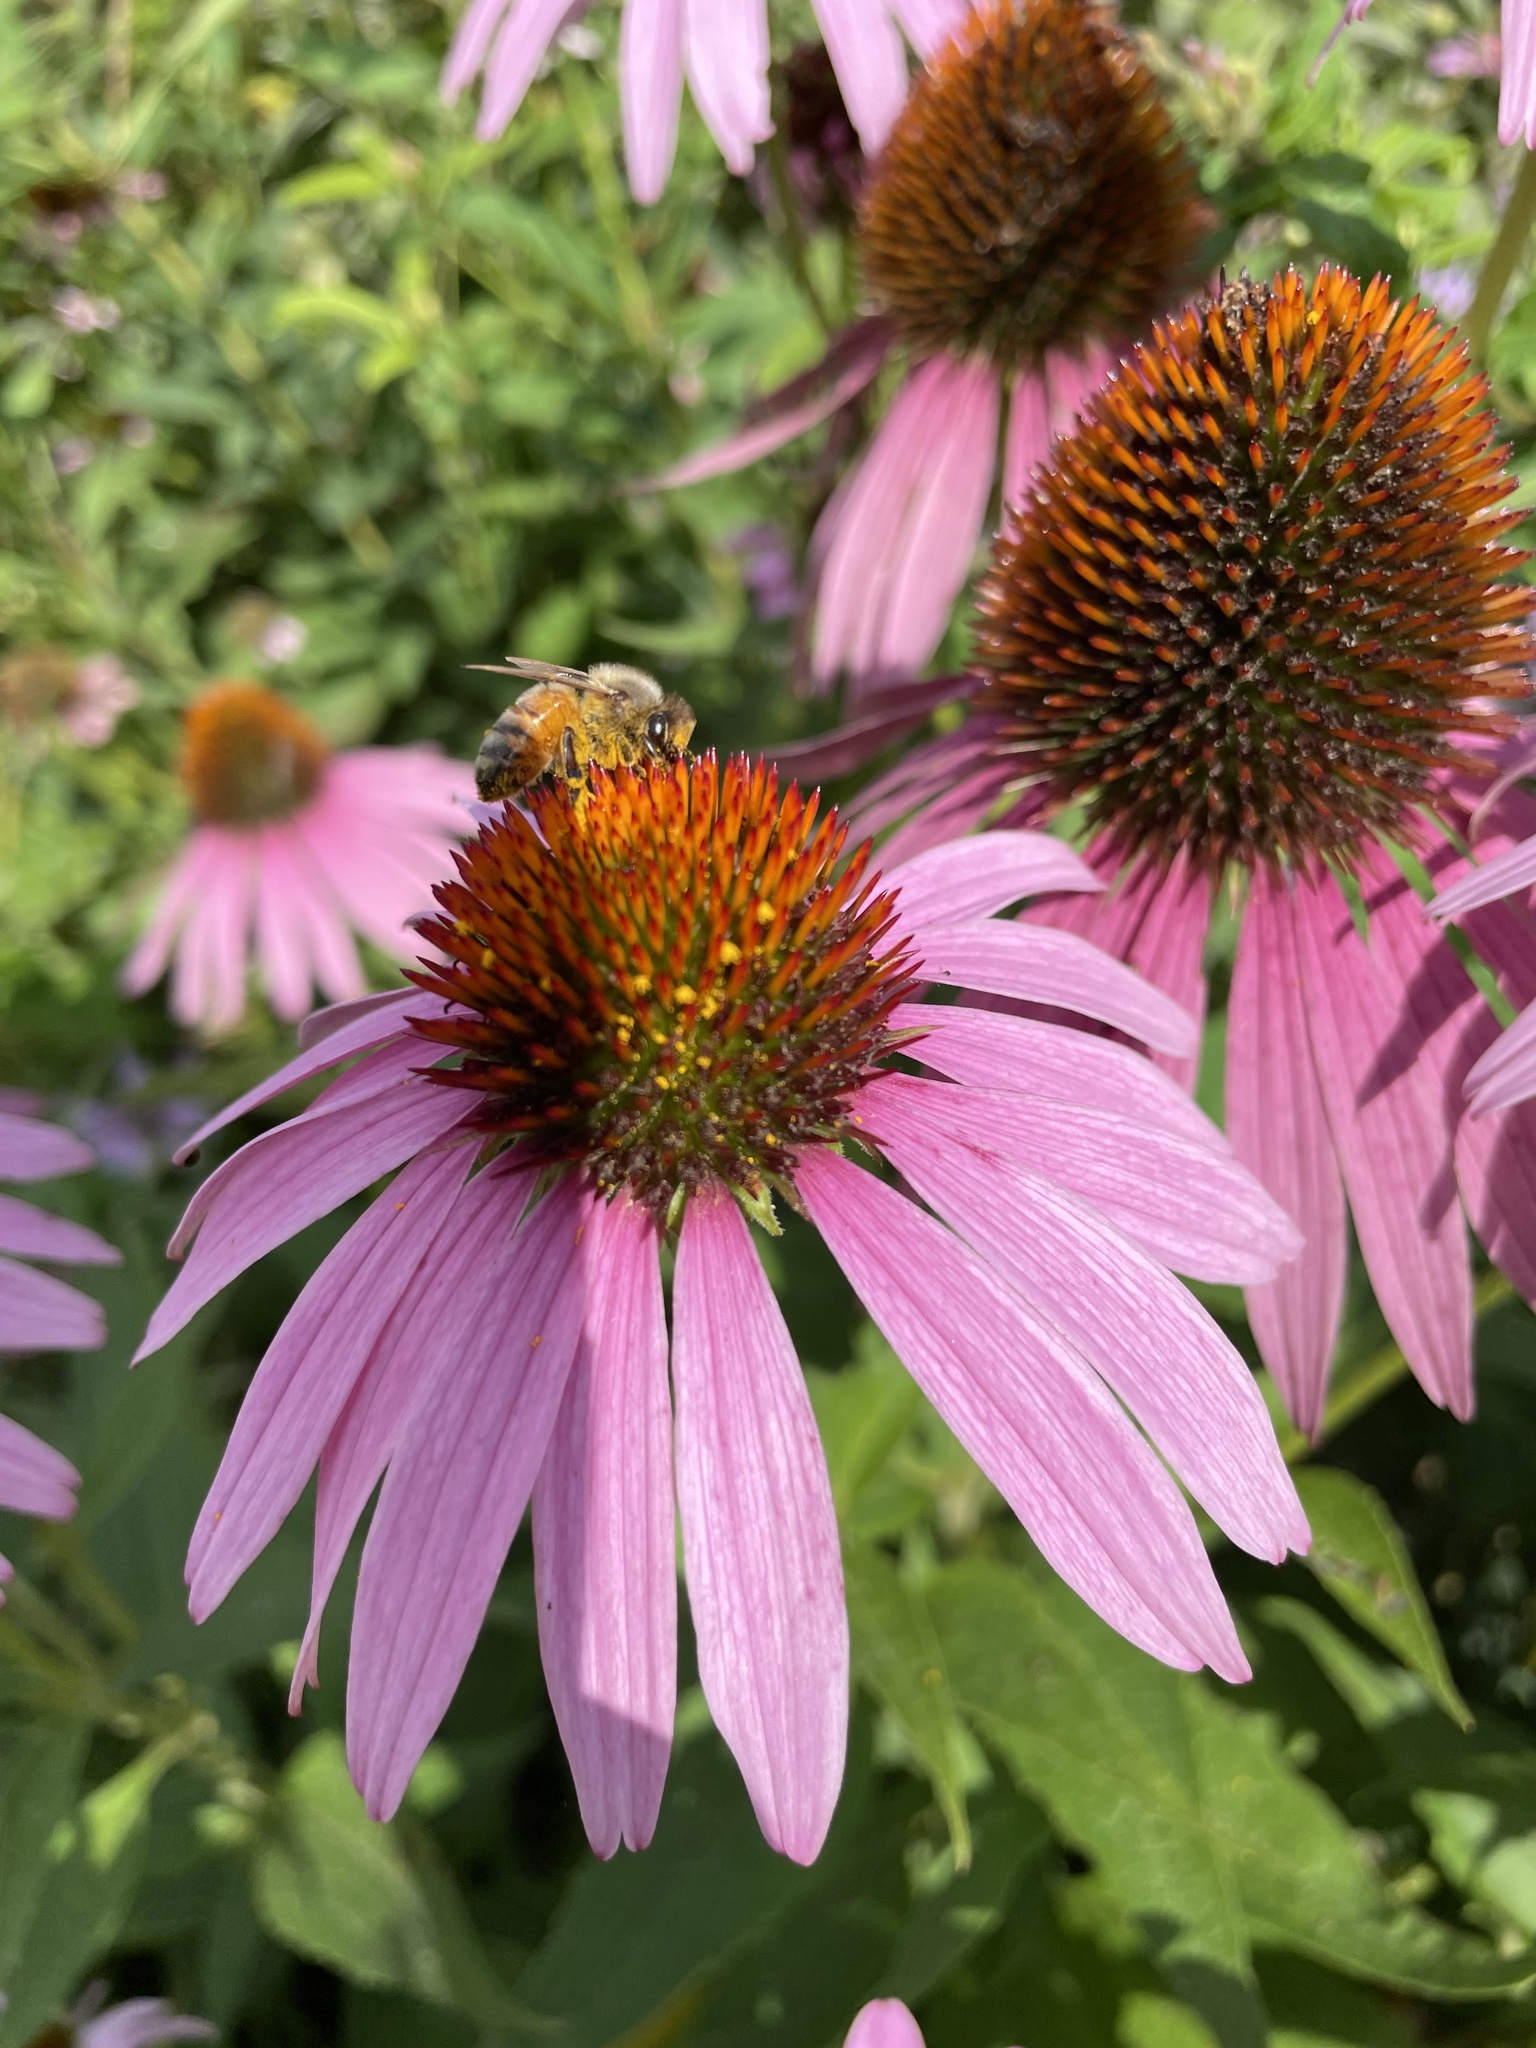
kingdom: Animalia
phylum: Arthropoda
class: Insecta
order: Hymenoptera
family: Apidae
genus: Apis
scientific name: Apis mellifera
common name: Honey bee
